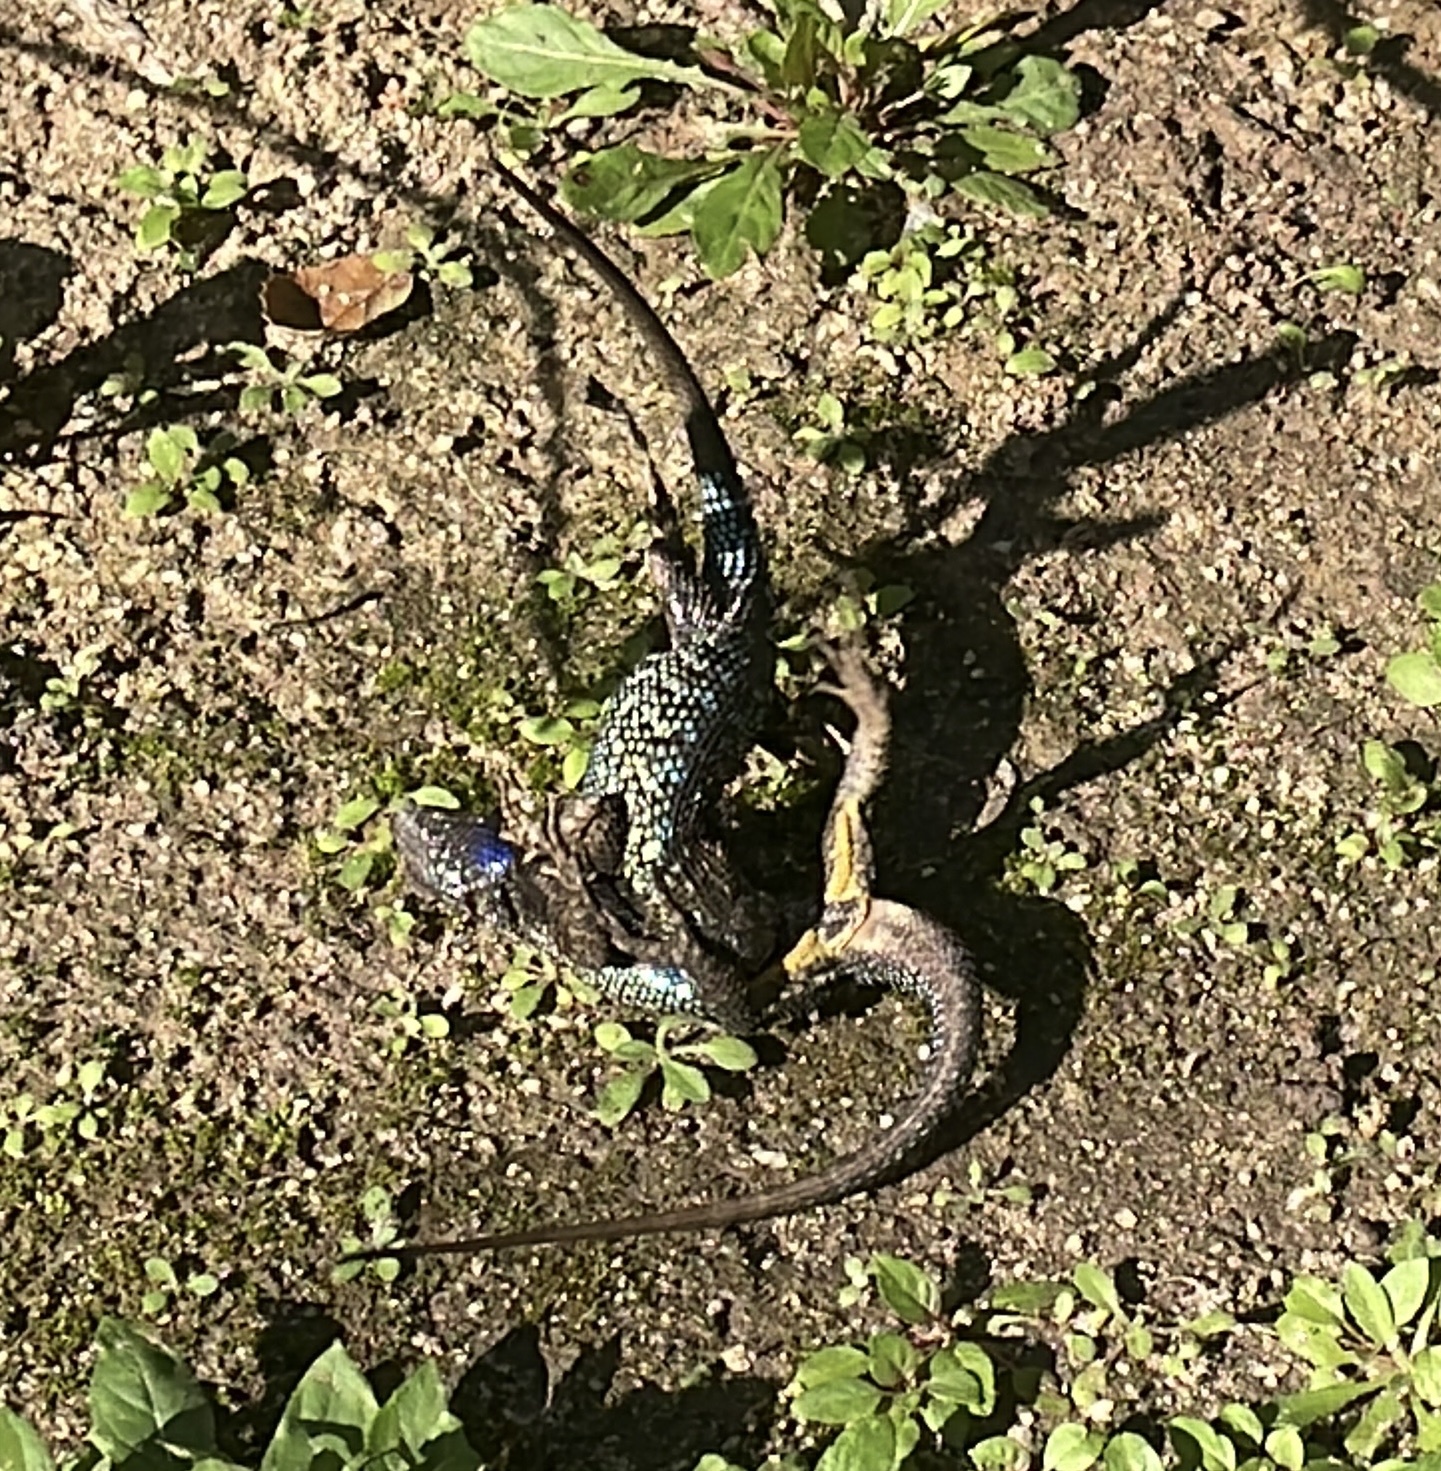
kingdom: Animalia
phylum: Chordata
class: Squamata
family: Phrynosomatidae
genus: Sceloporus
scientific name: Sceloporus occidentalis
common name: Western fence lizard
